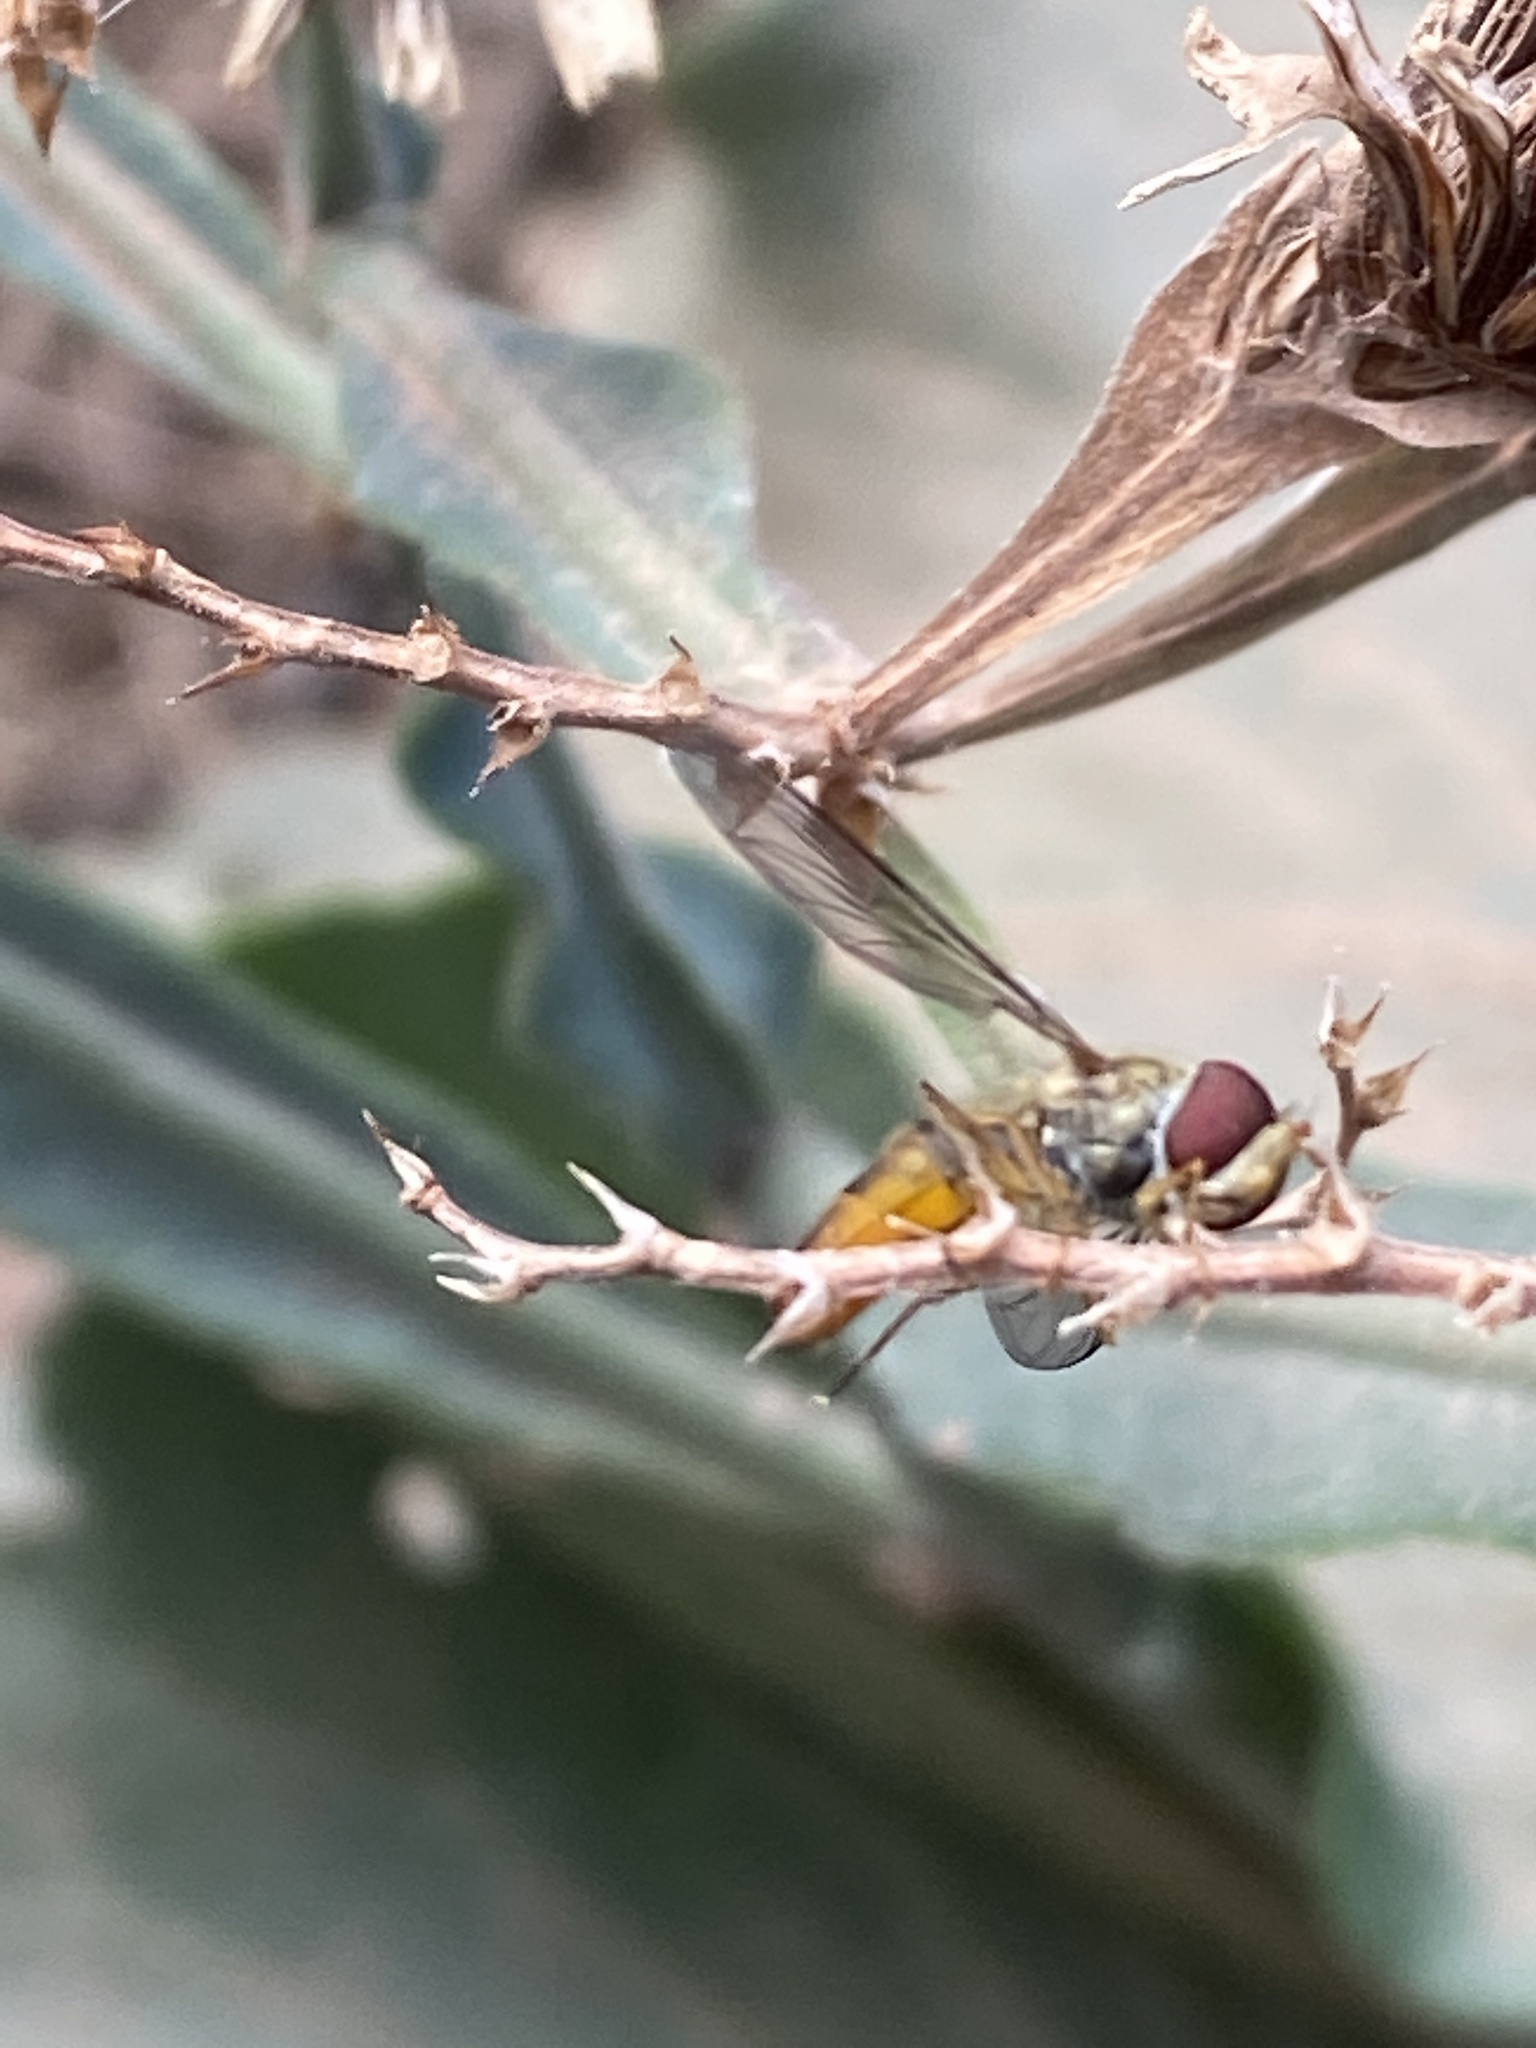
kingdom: Animalia
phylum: Arthropoda
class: Insecta
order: Diptera
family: Syrphidae
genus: Episyrphus
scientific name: Episyrphus balteatus
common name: Marmalade hoverfly
